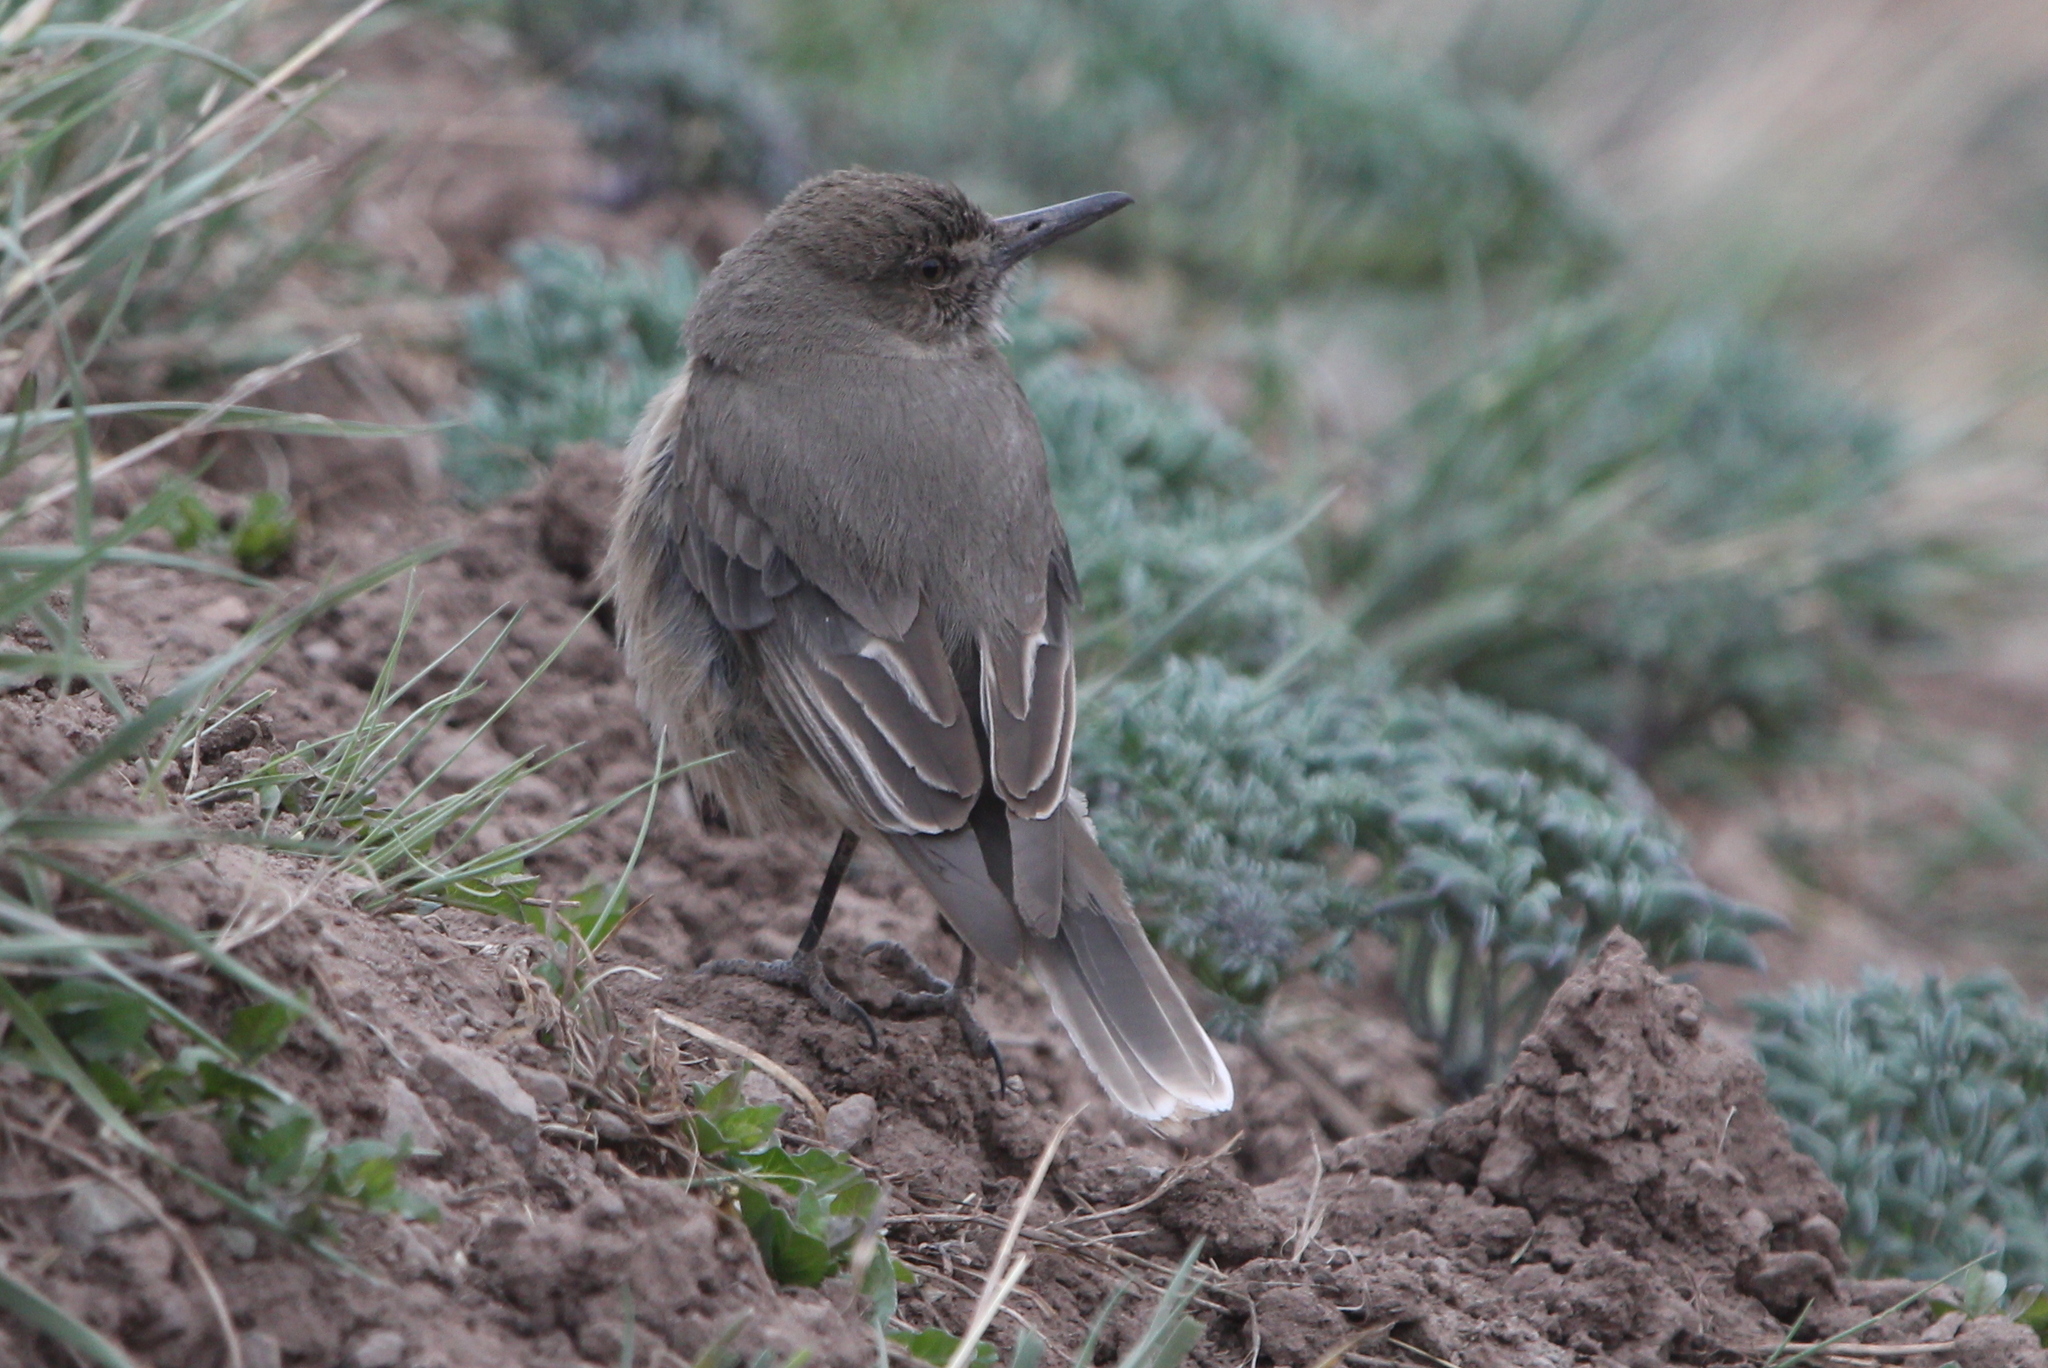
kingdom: Animalia
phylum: Chordata
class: Aves
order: Passeriformes
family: Tyrannidae
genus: Agriornis
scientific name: Agriornis montanus
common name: Black-billed shrike-tyrant
